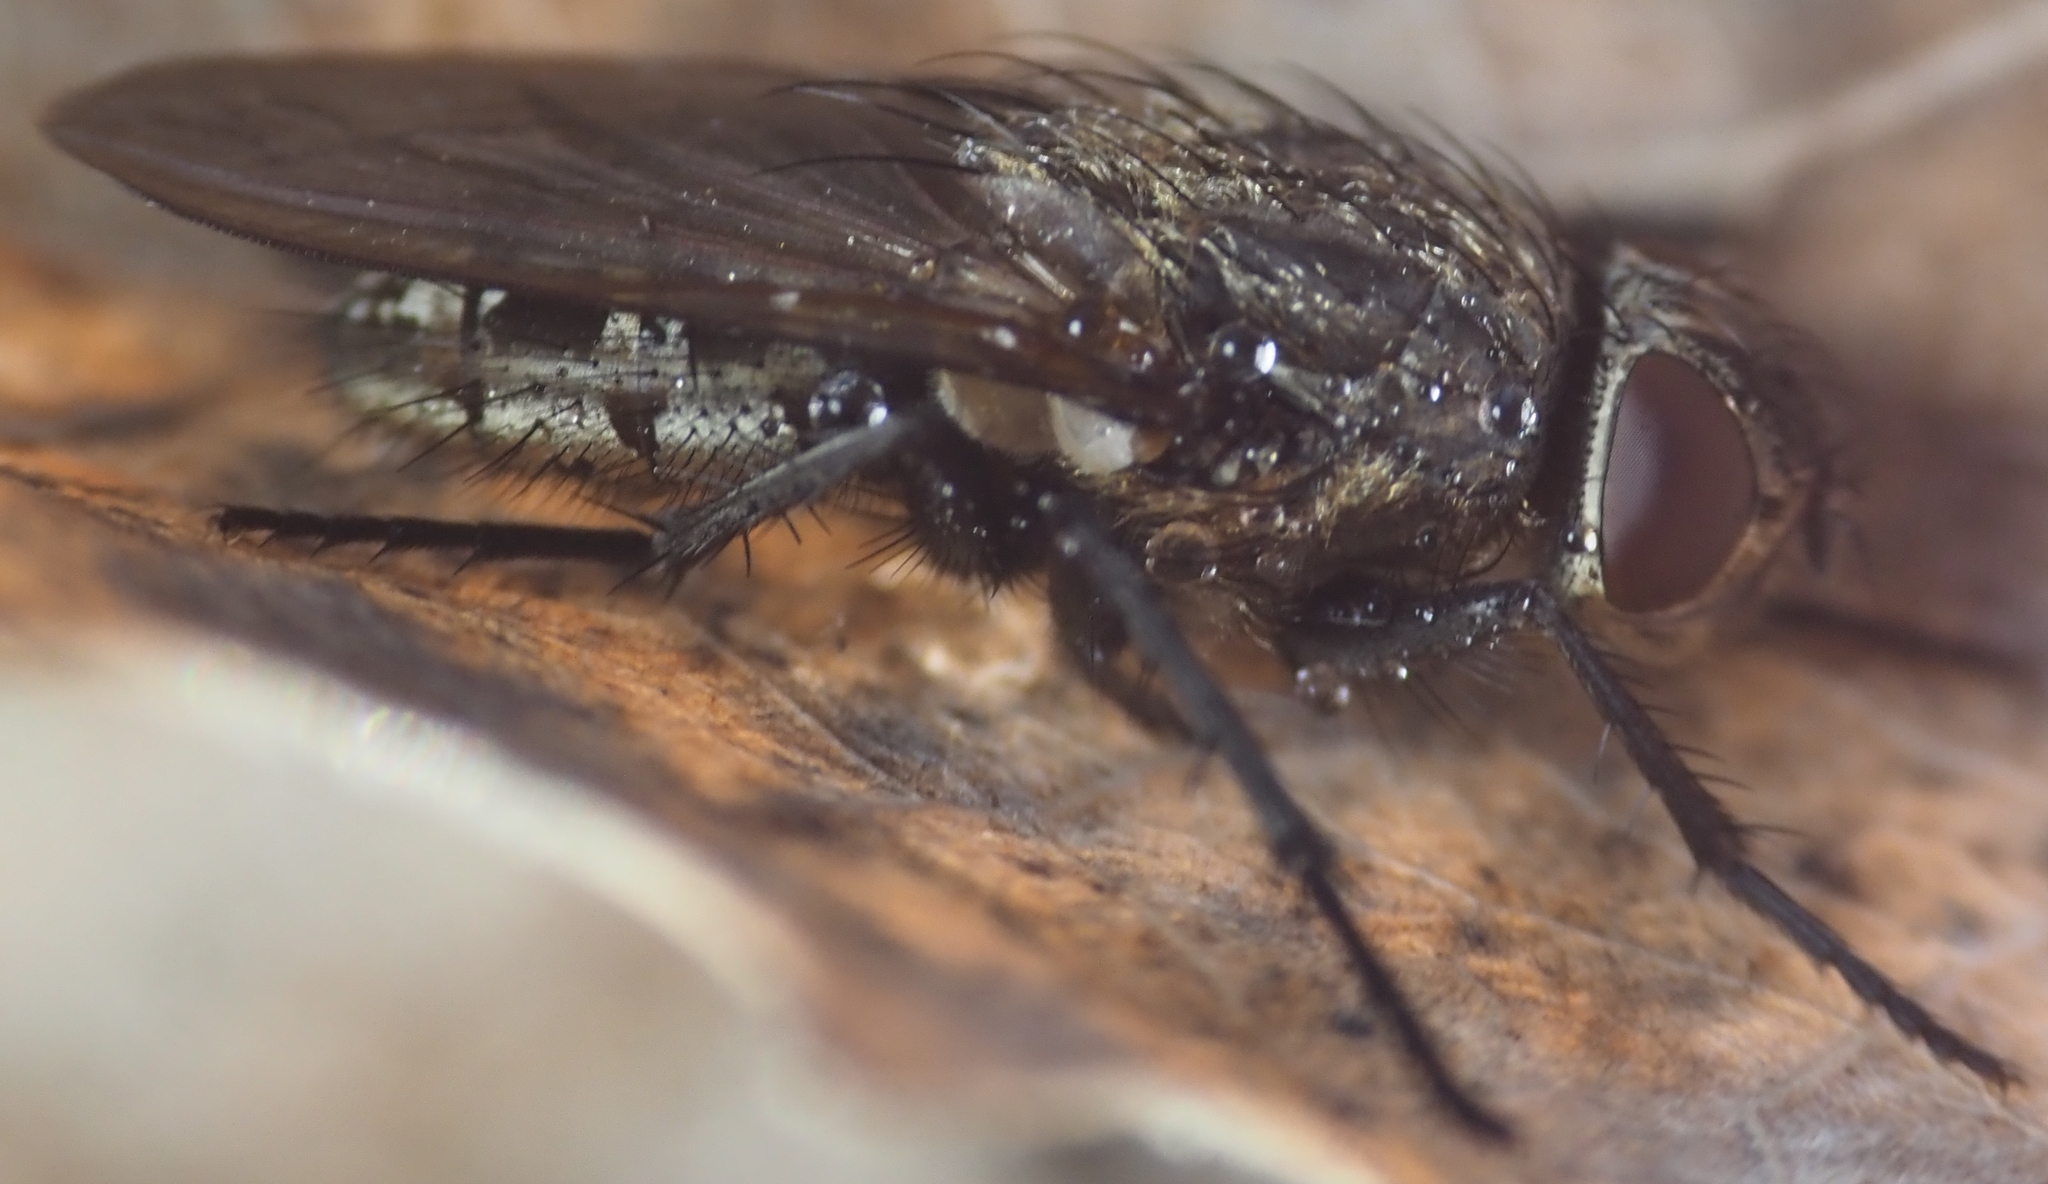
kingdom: Animalia
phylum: Arthropoda
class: Insecta
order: Diptera
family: Polleniidae
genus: Pollenia
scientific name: Pollenia
